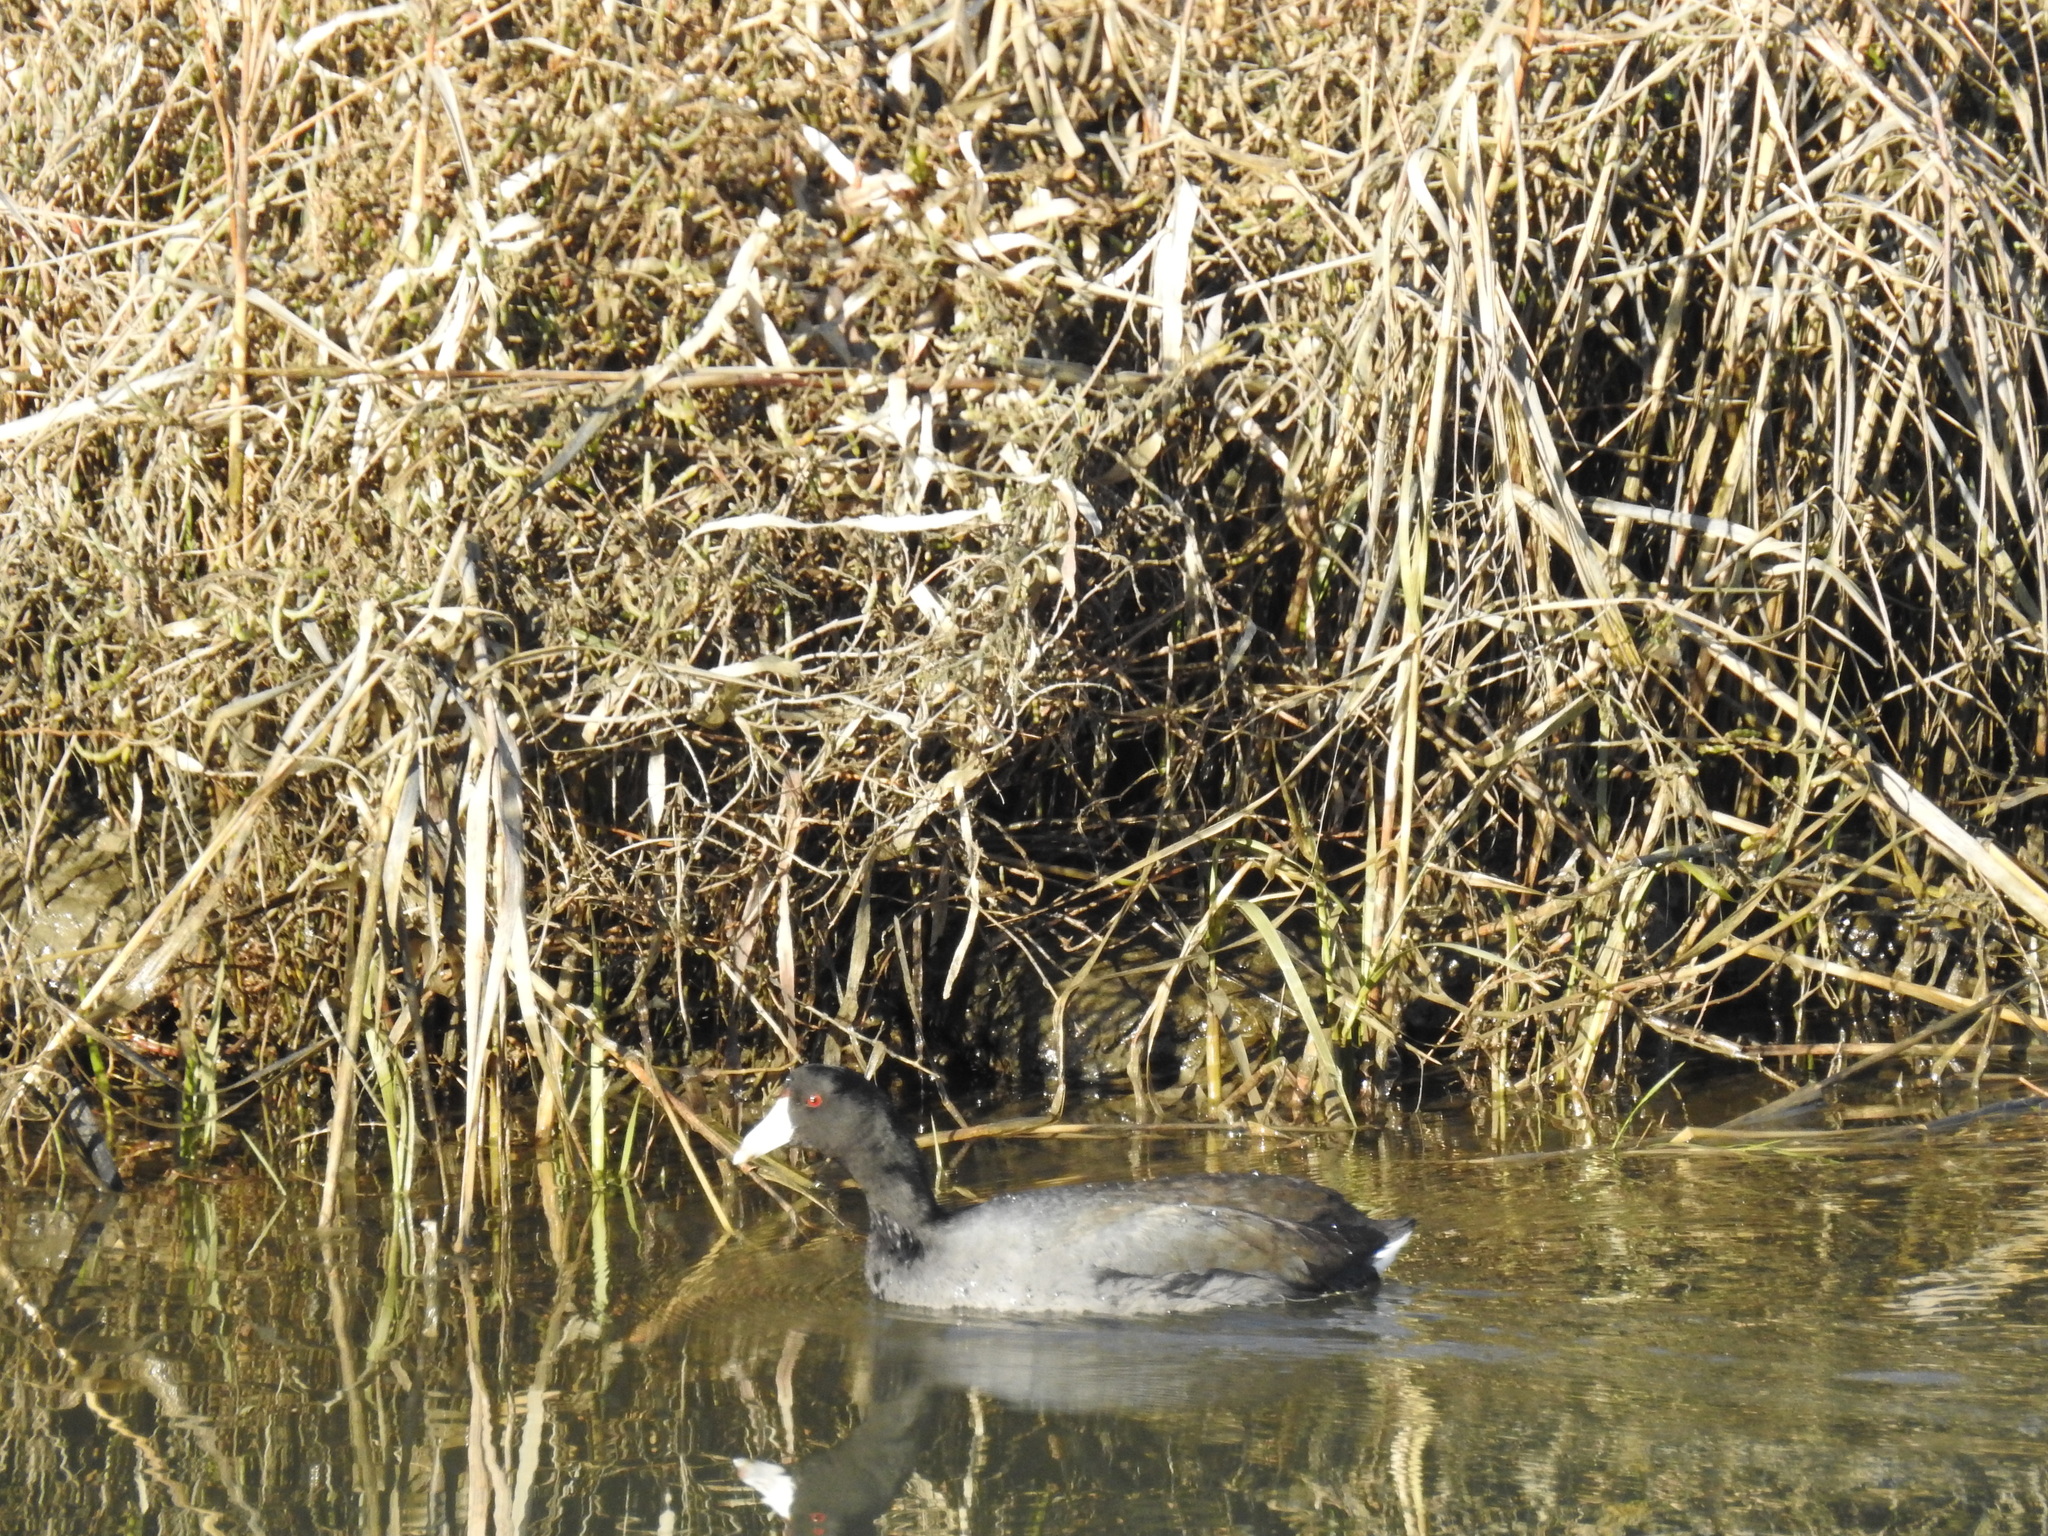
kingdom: Animalia
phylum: Chordata
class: Aves
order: Gruiformes
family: Rallidae
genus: Fulica
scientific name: Fulica americana
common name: American coot
